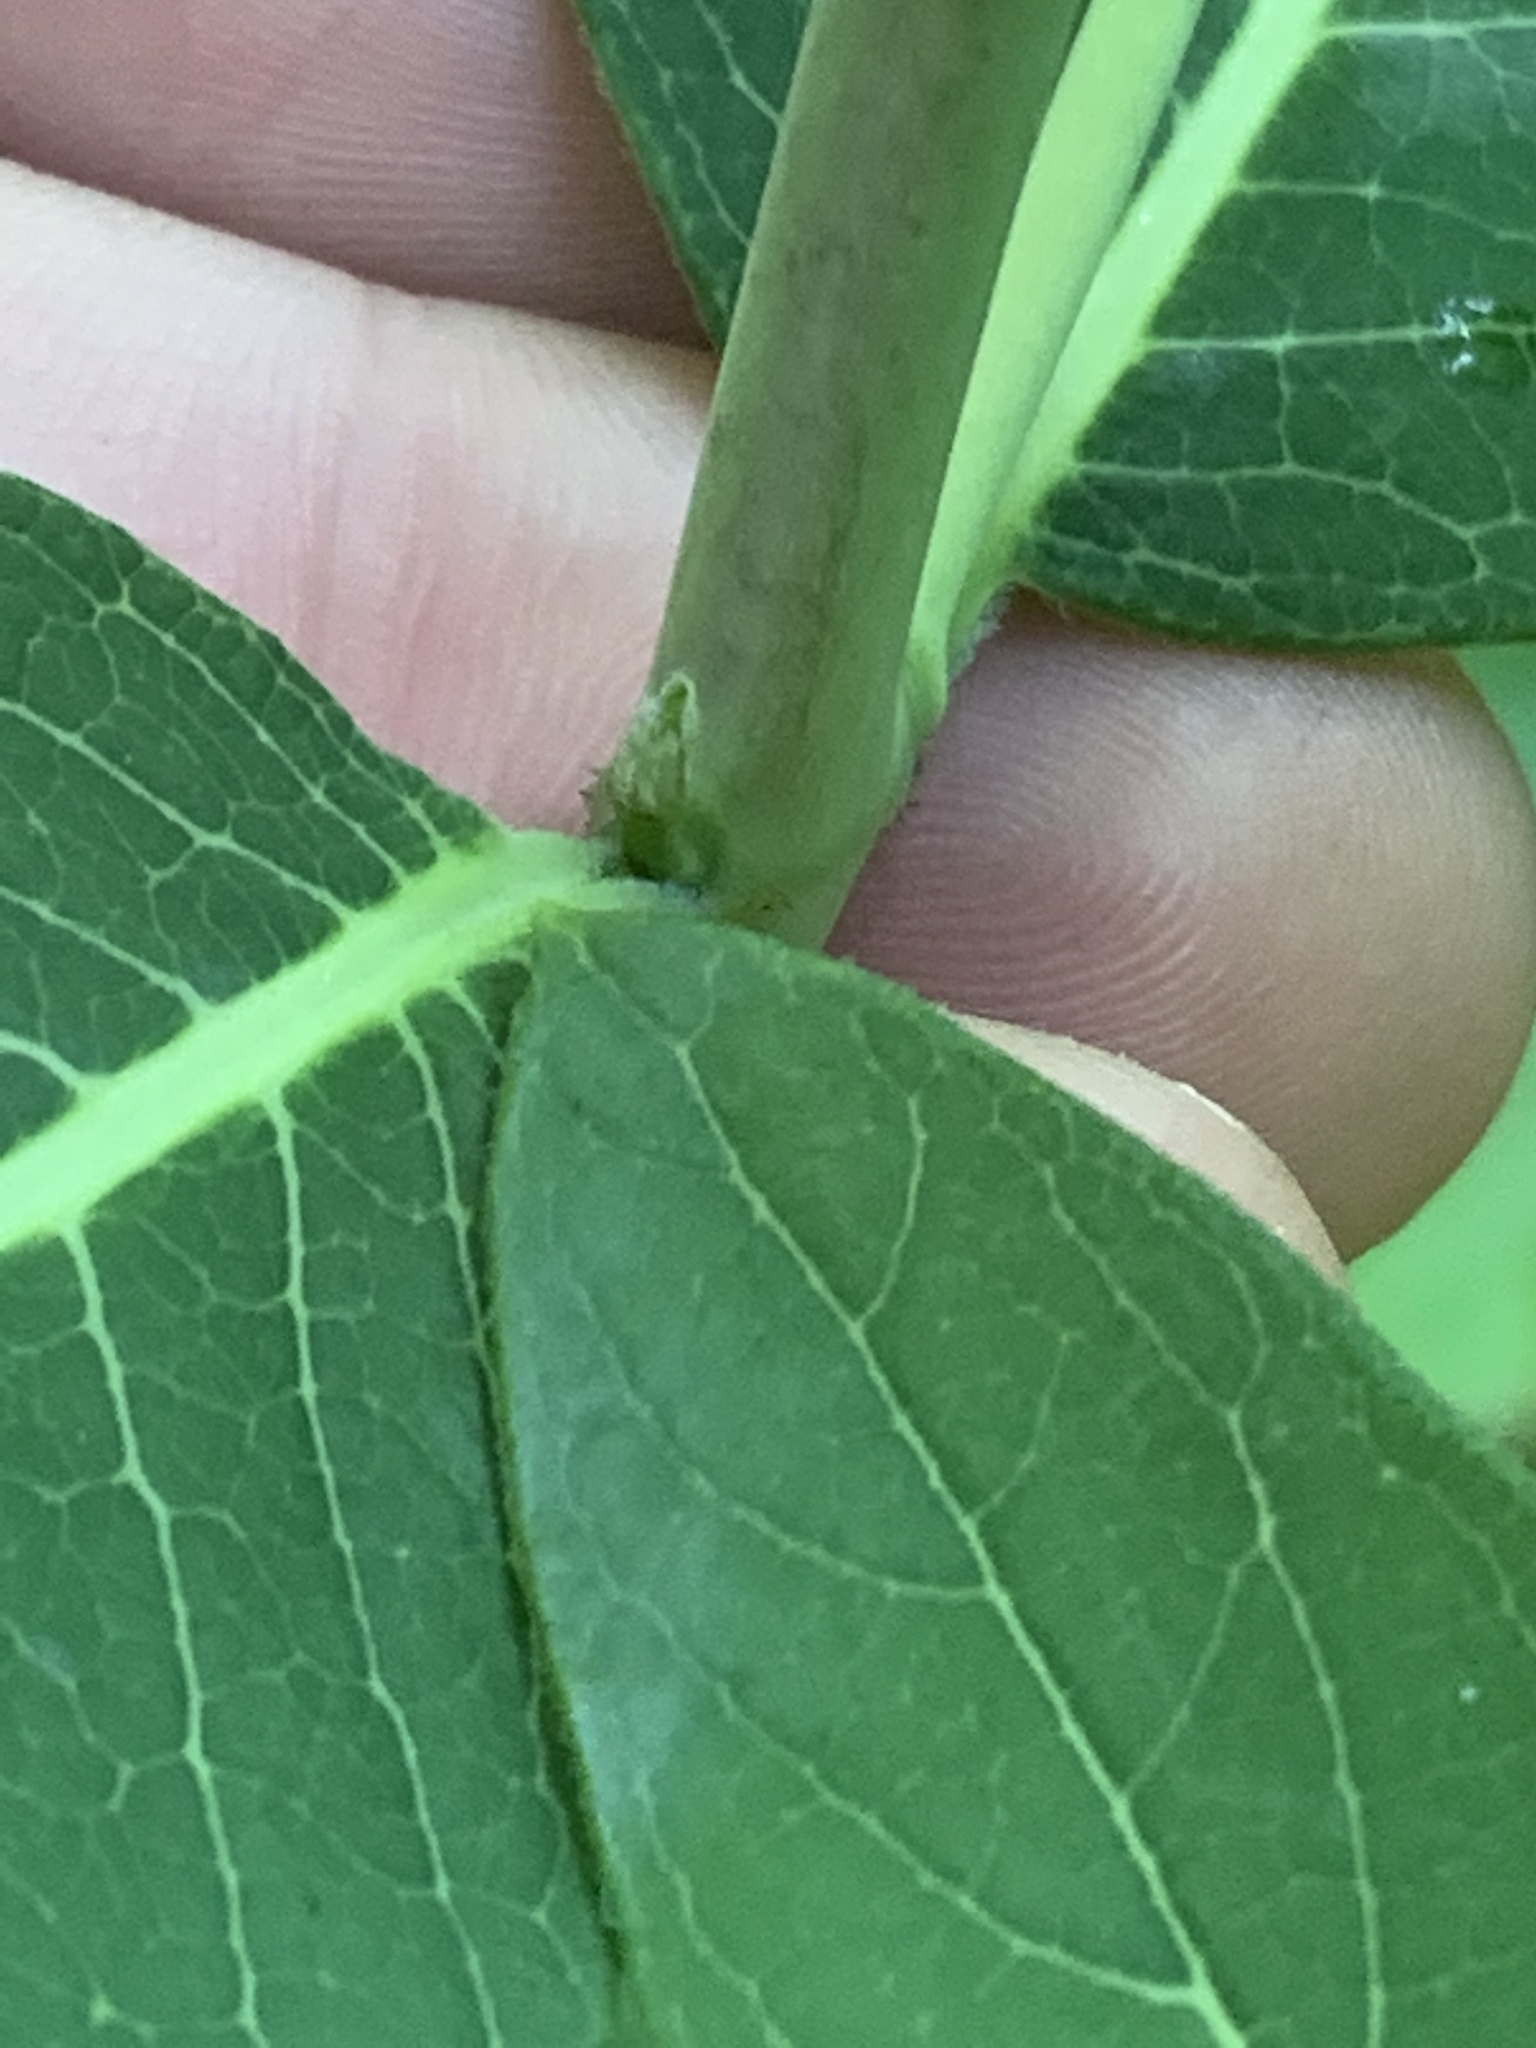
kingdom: Plantae
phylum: Tracheophyta
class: Magnoliopsida
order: Gentianales
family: Apocynaceae
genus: Apocynum
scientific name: Apocynum cannabinum
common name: Hemp dogbane
